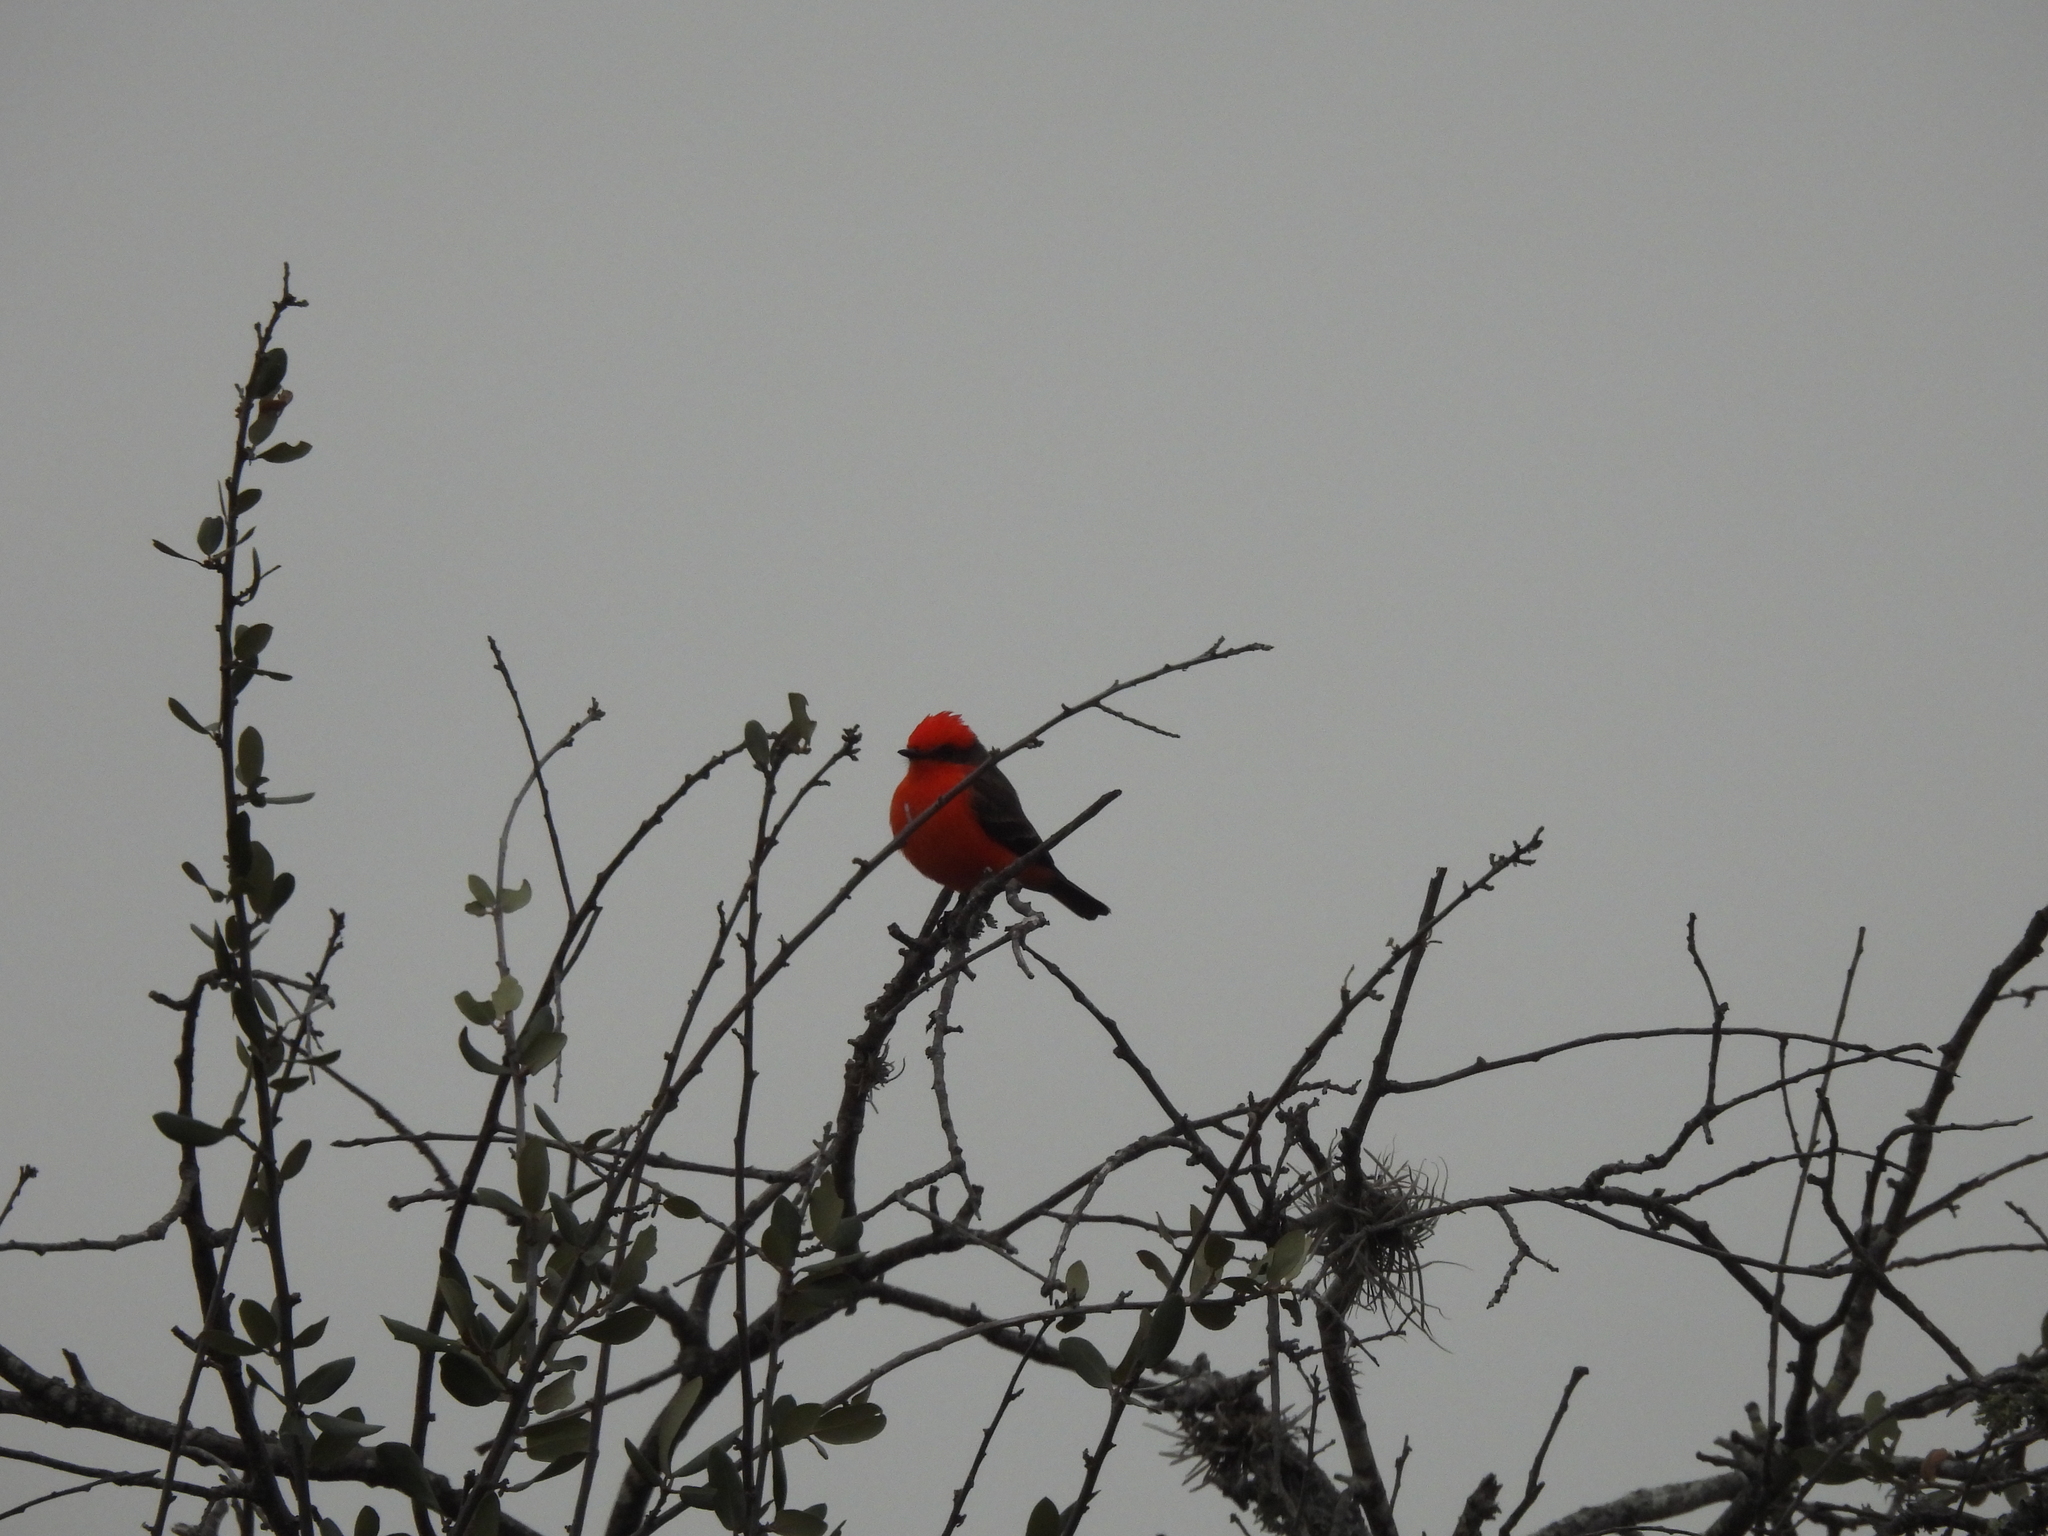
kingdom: Animalia
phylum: Chordata
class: Aves
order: Passeriformes
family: Tyrannidae
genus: Pyrocephalus
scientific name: Pyrocephalus rubinus
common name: Vermilion flycatcher
